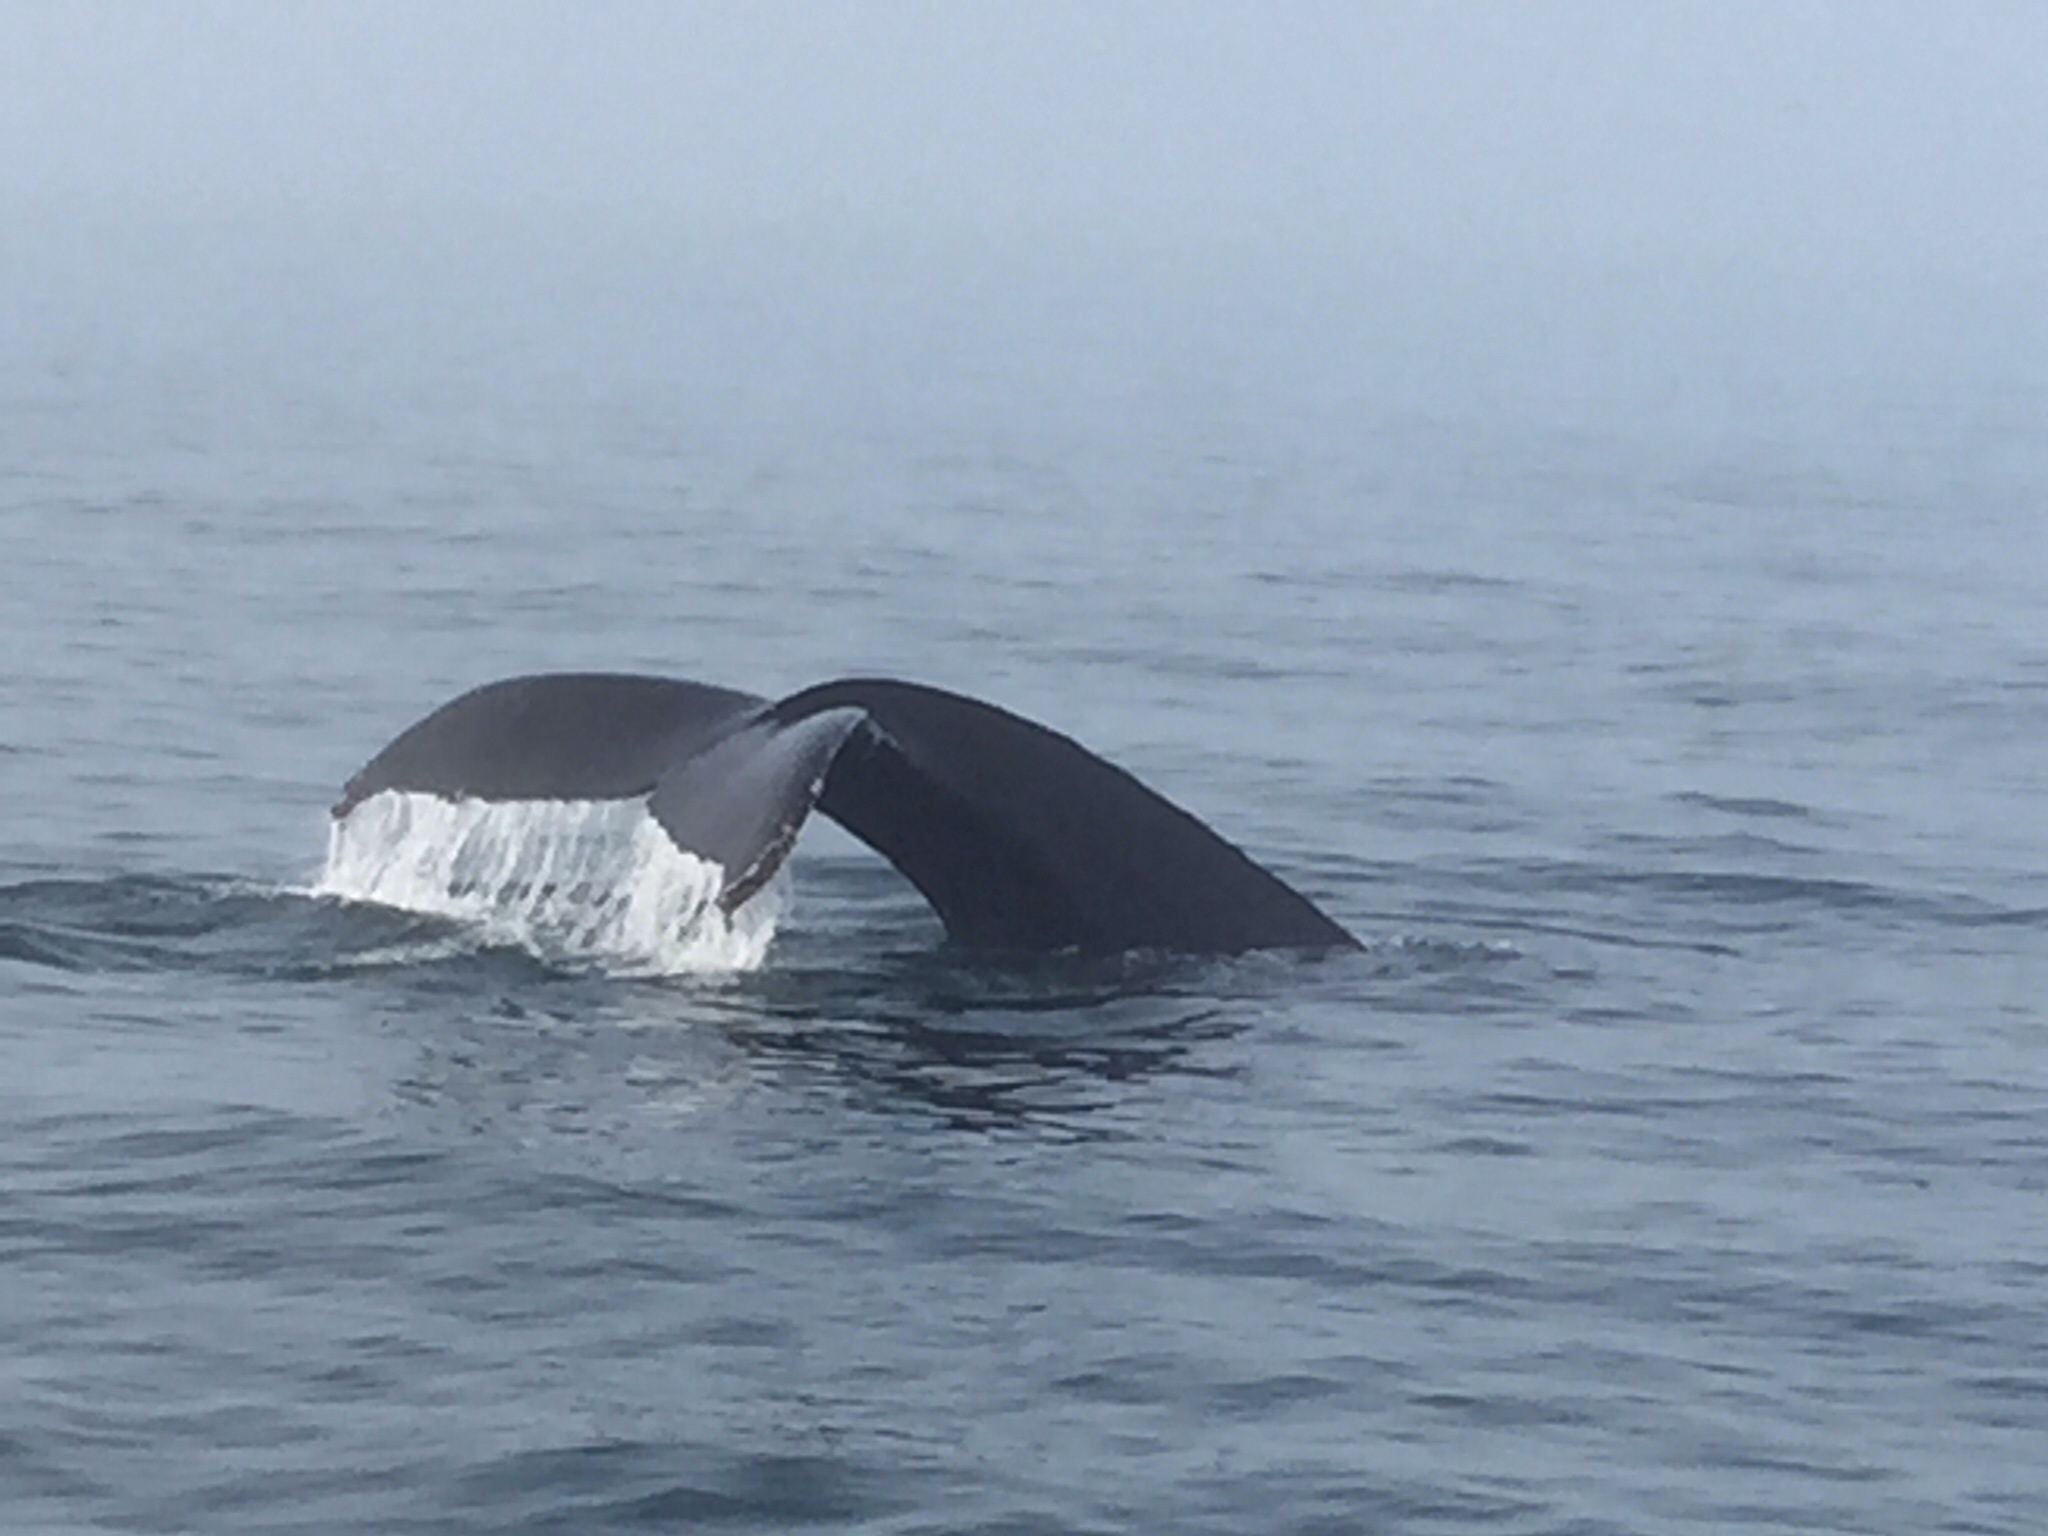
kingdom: Animalia
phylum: Chordata
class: Mammalia
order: Cetacea
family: Balaenopteridae
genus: Megaptera
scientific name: Megaptera novaeangliae
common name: Humpback whale
